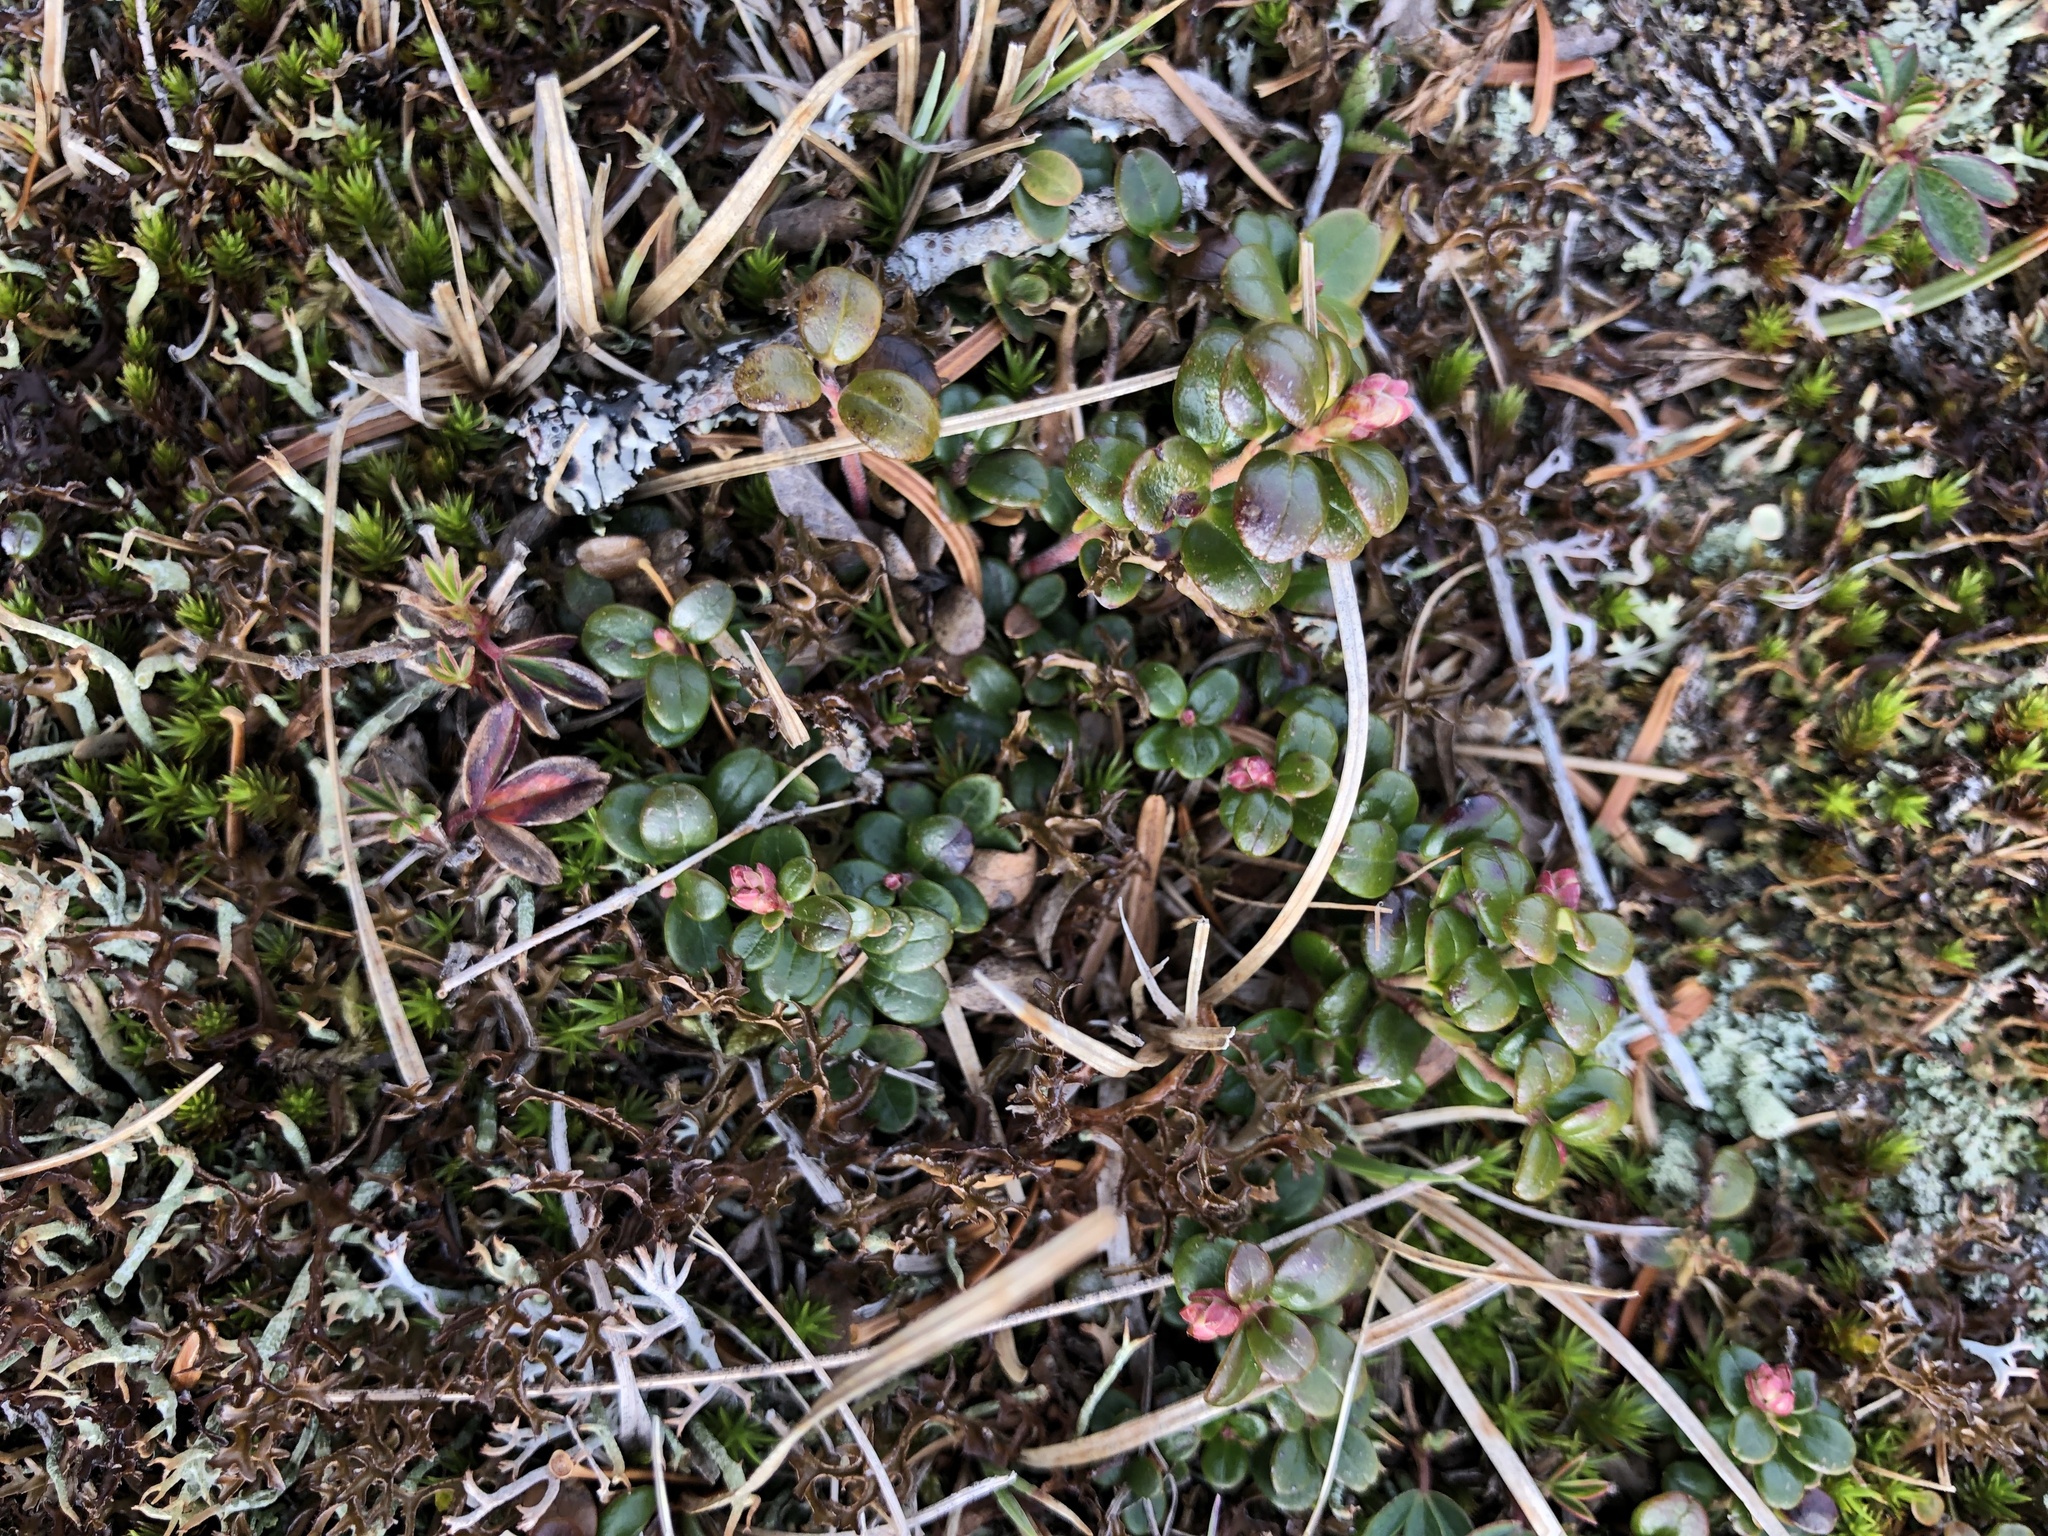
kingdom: Plantae
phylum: Tracheophyta
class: Magnoliopsida
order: Ericales
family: Ericaceae
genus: Vaccinium
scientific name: Vaccinium vitis-idaea
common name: Cowberry
